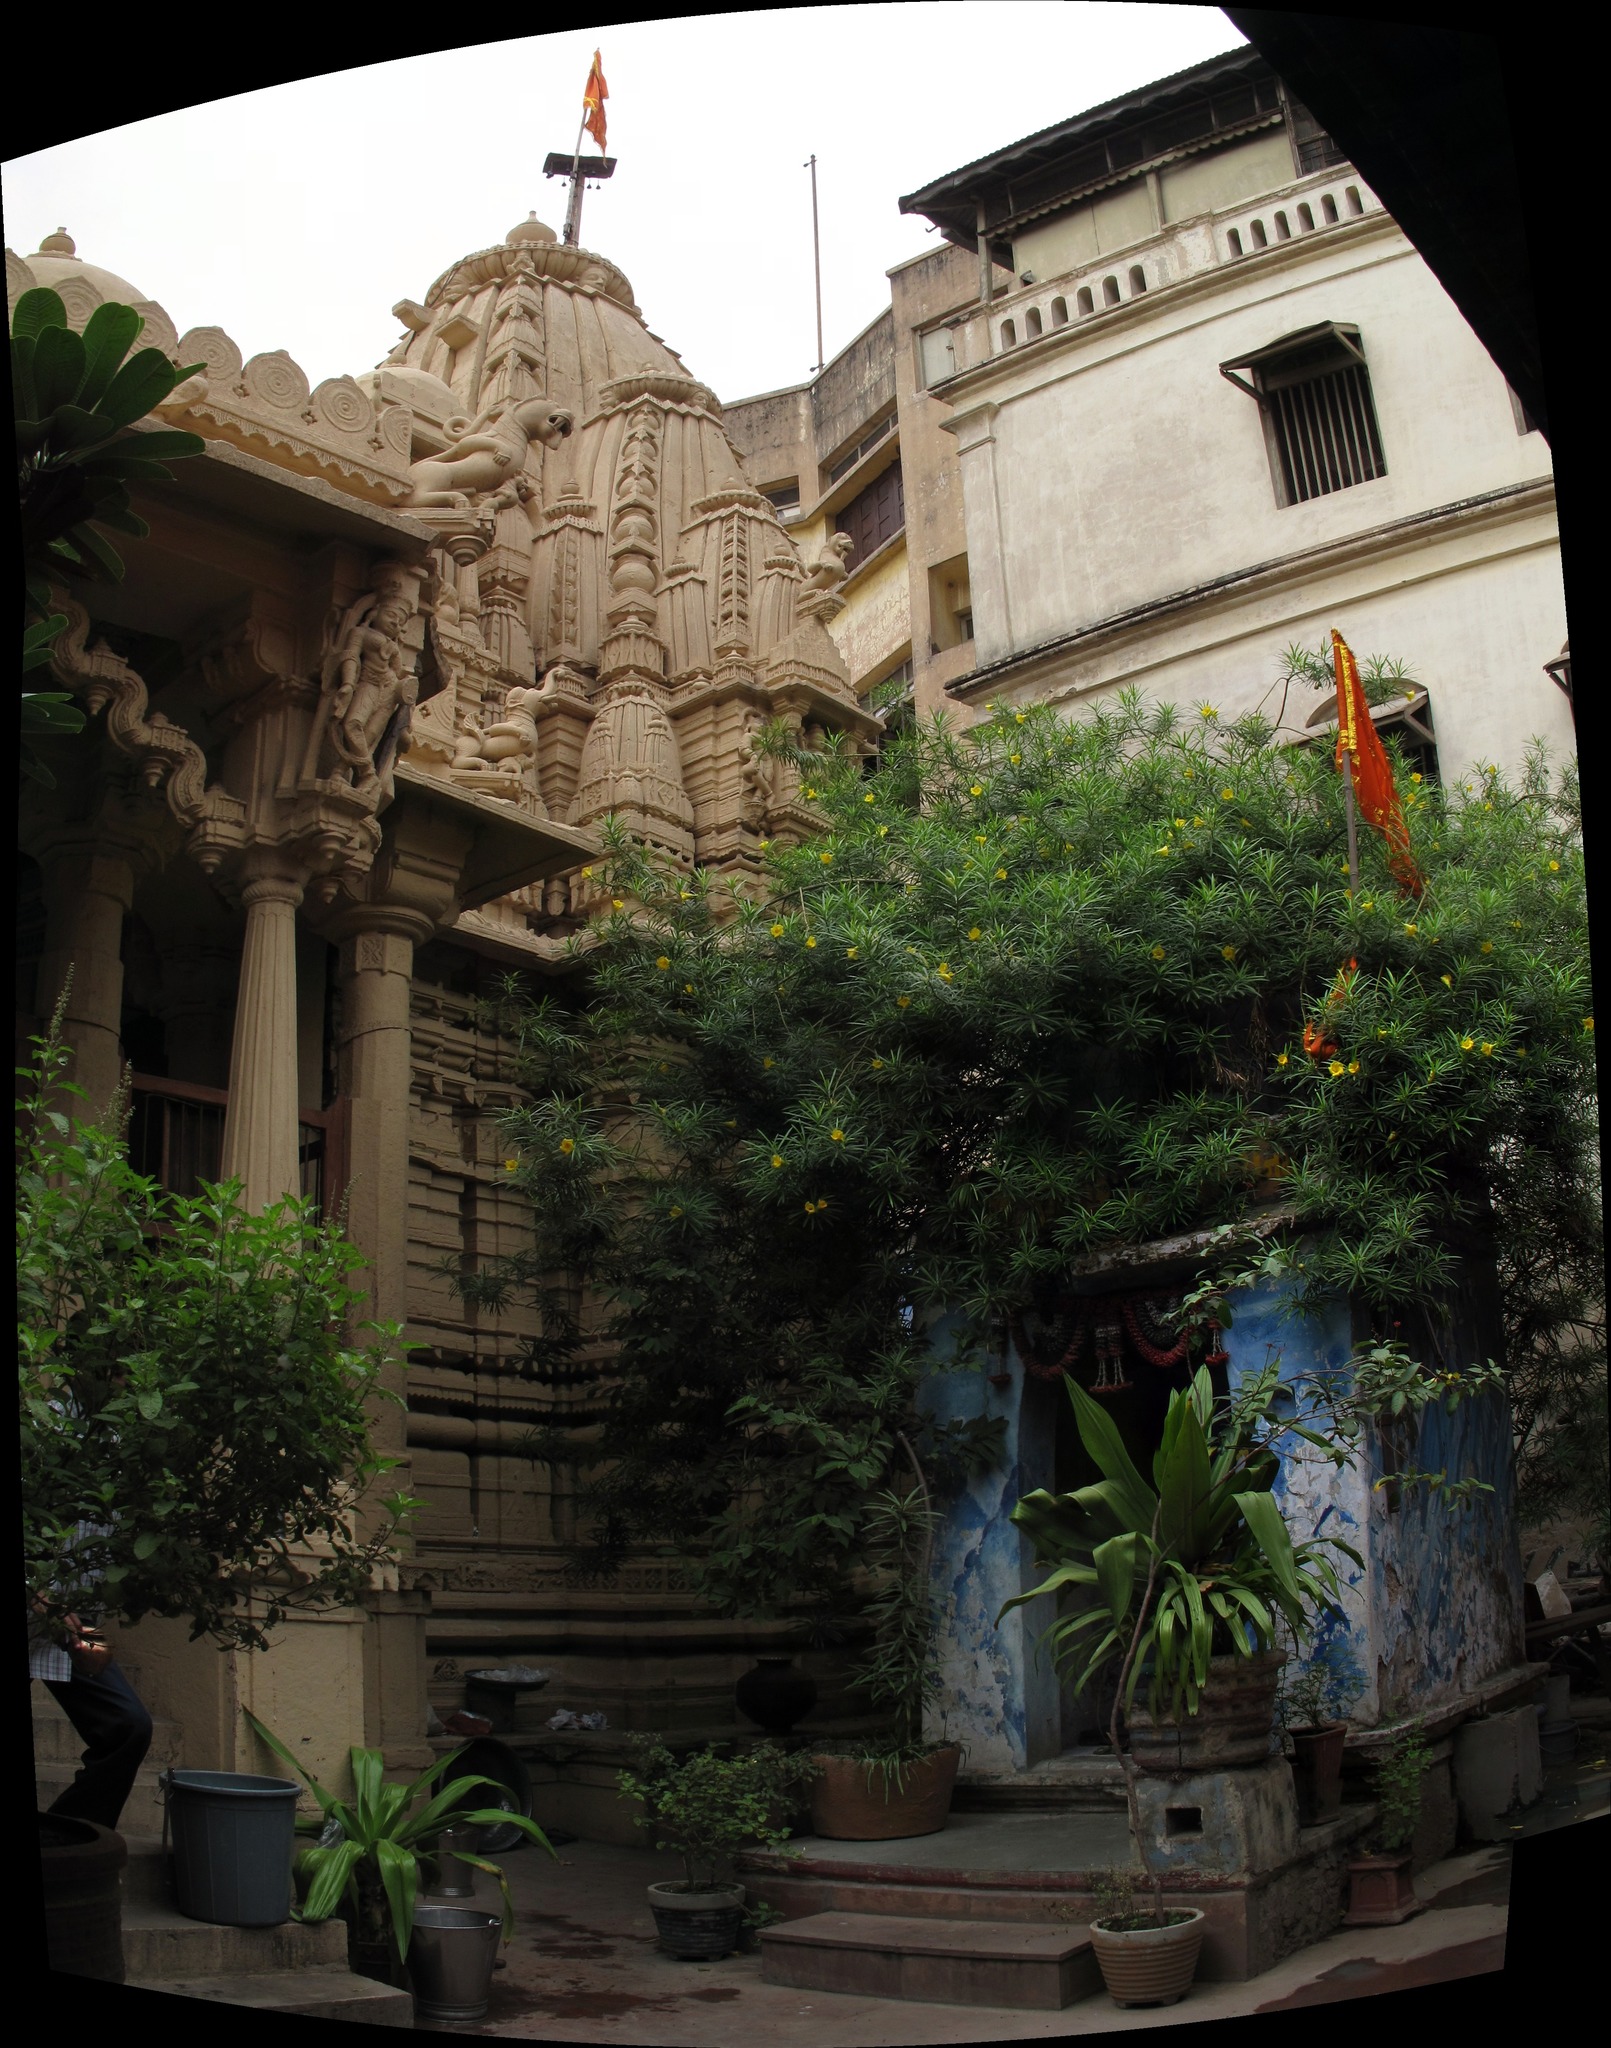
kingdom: Plantae
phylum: Tracheophyta
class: Magnoliopsida
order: Gentianales
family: Apocynaceae
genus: Cascabela
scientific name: Cascabela thevetia
